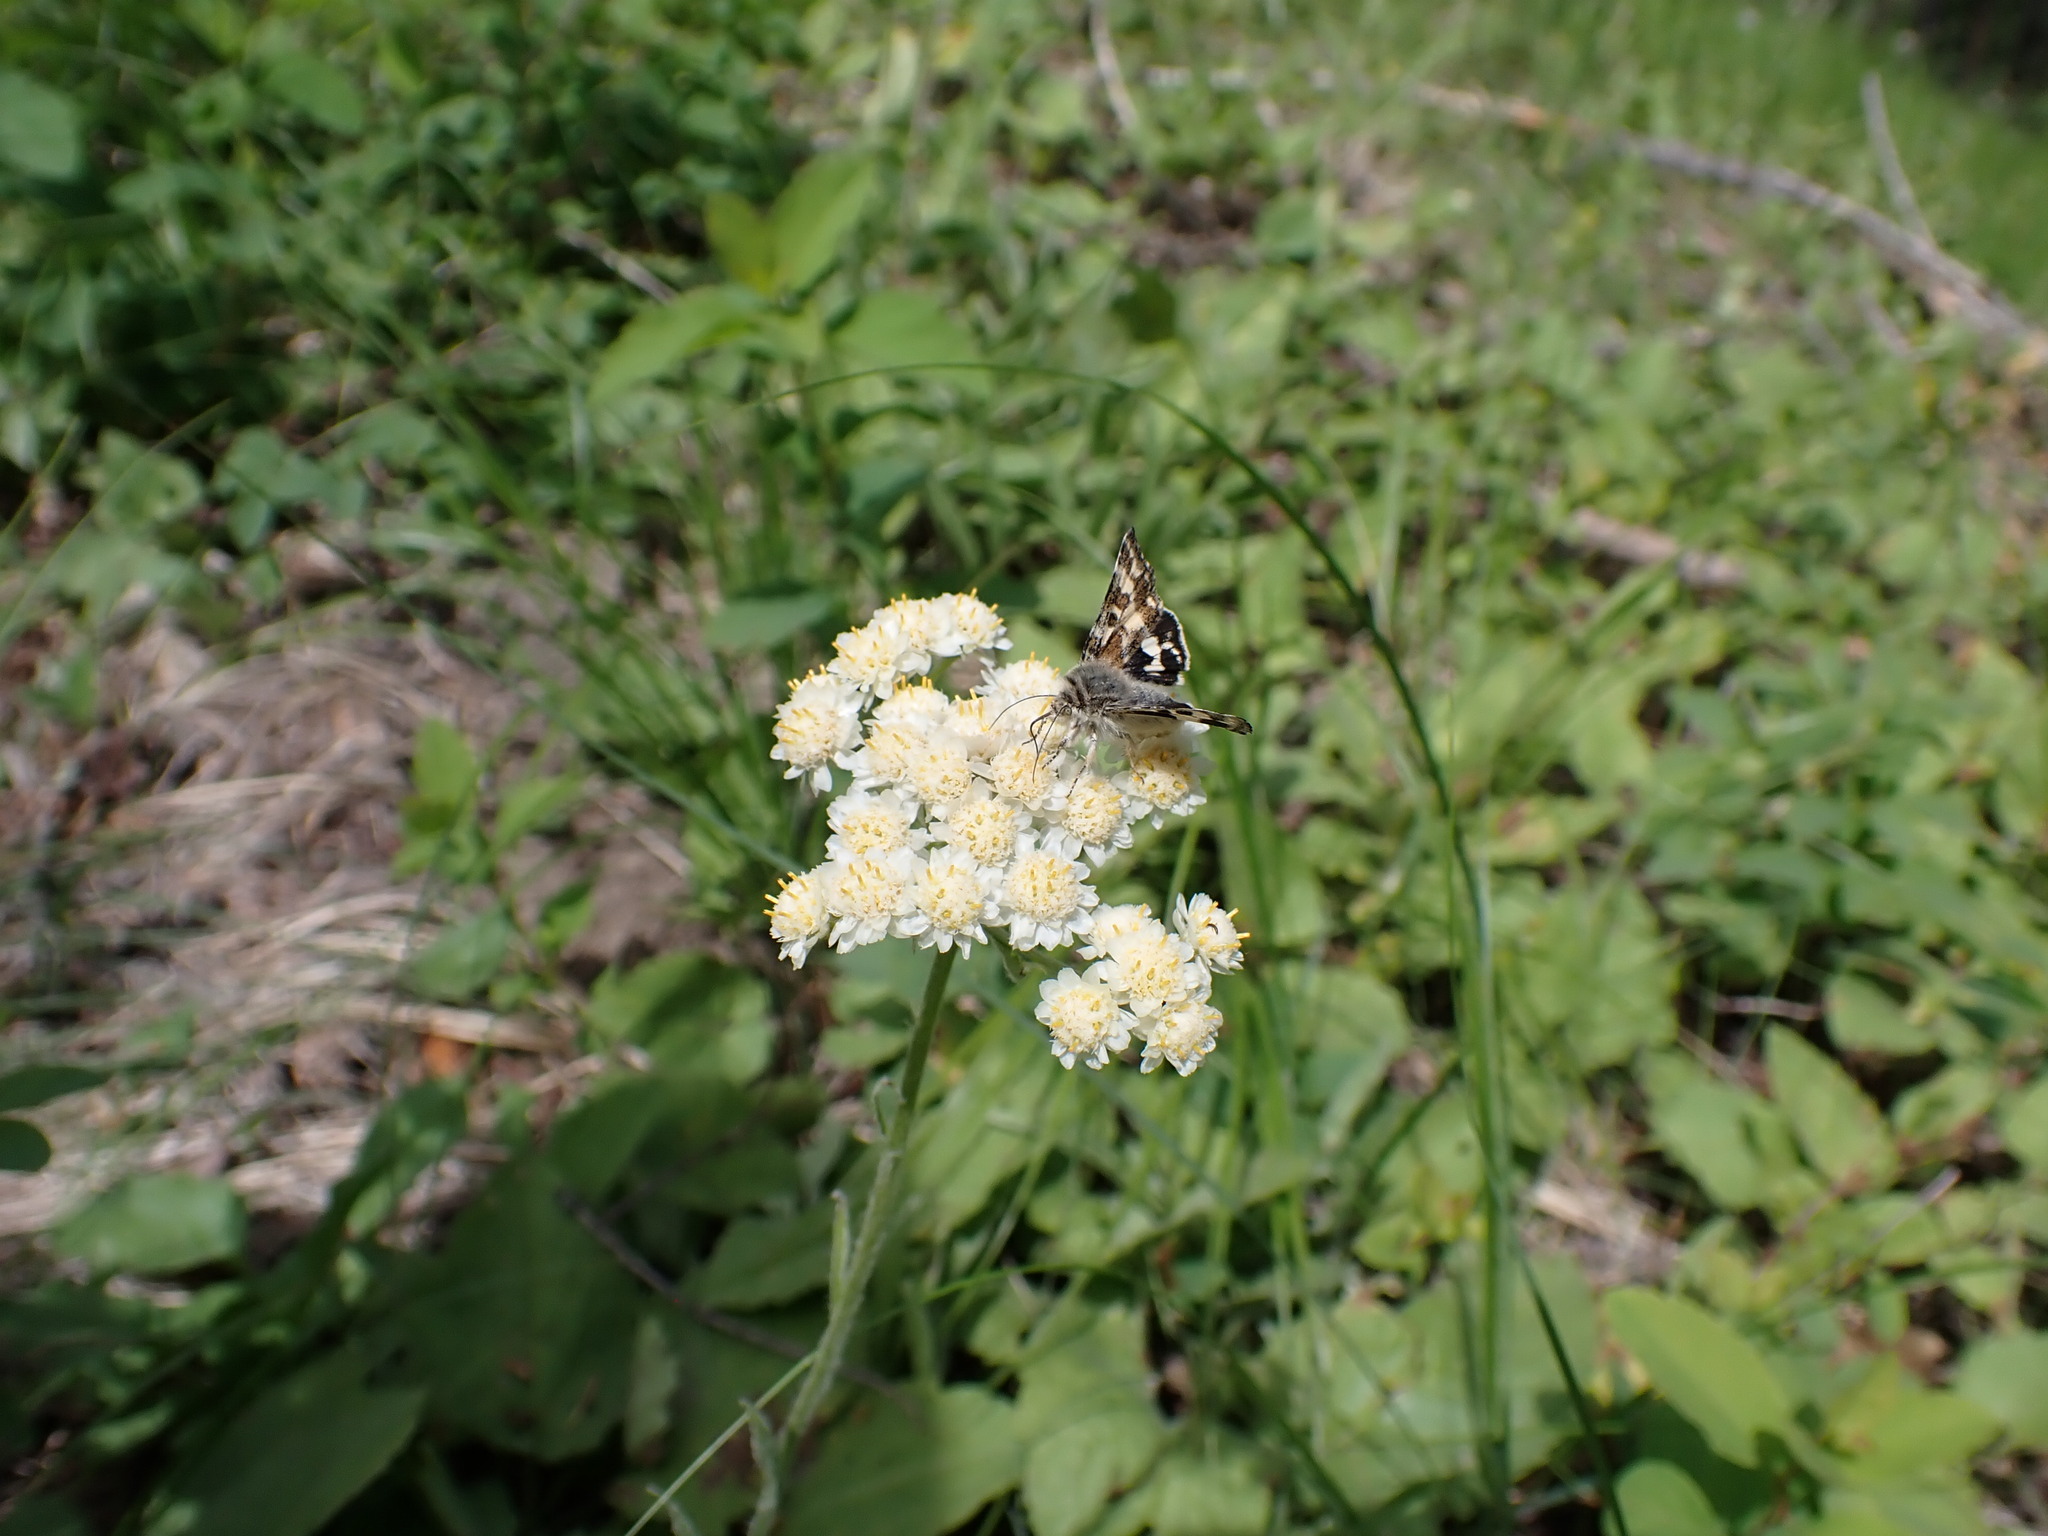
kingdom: Animalia
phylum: Arthropoda
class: Insecta
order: Lepidoptera
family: Noctuidae
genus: Schinia
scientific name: Schinia honesta
